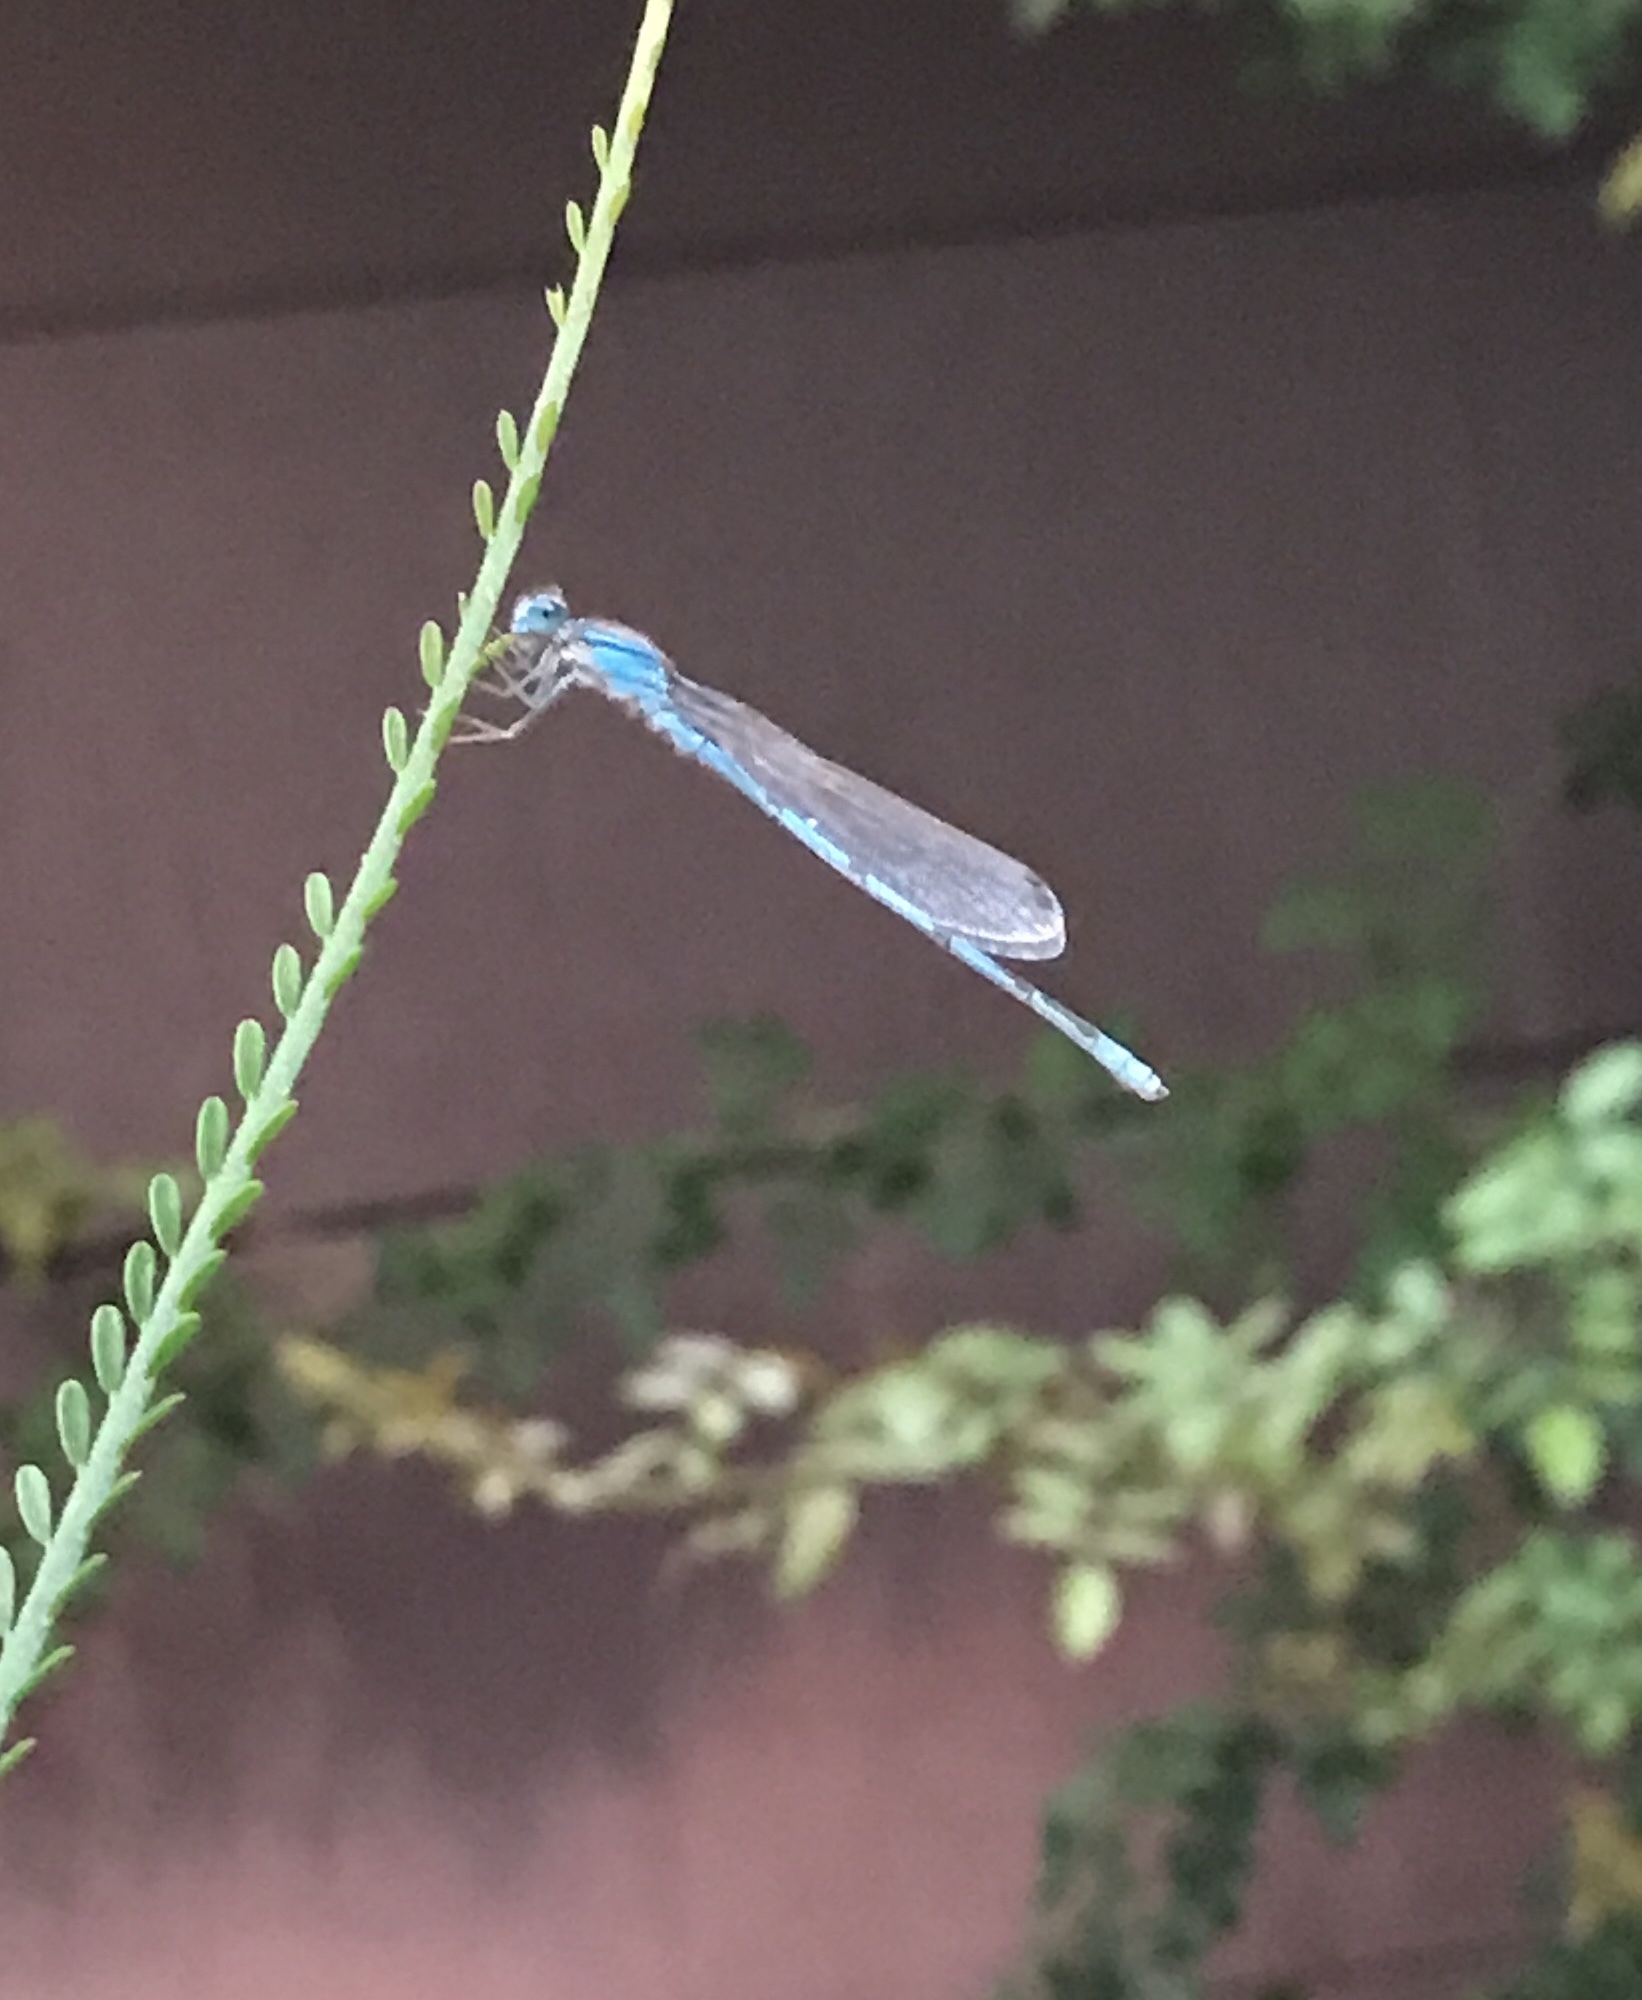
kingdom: Animalia
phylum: Arthropoda
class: Insecta
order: Odonata
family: Coenagrionidae
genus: Enallagma
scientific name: Enallagma civile
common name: Damselfly
